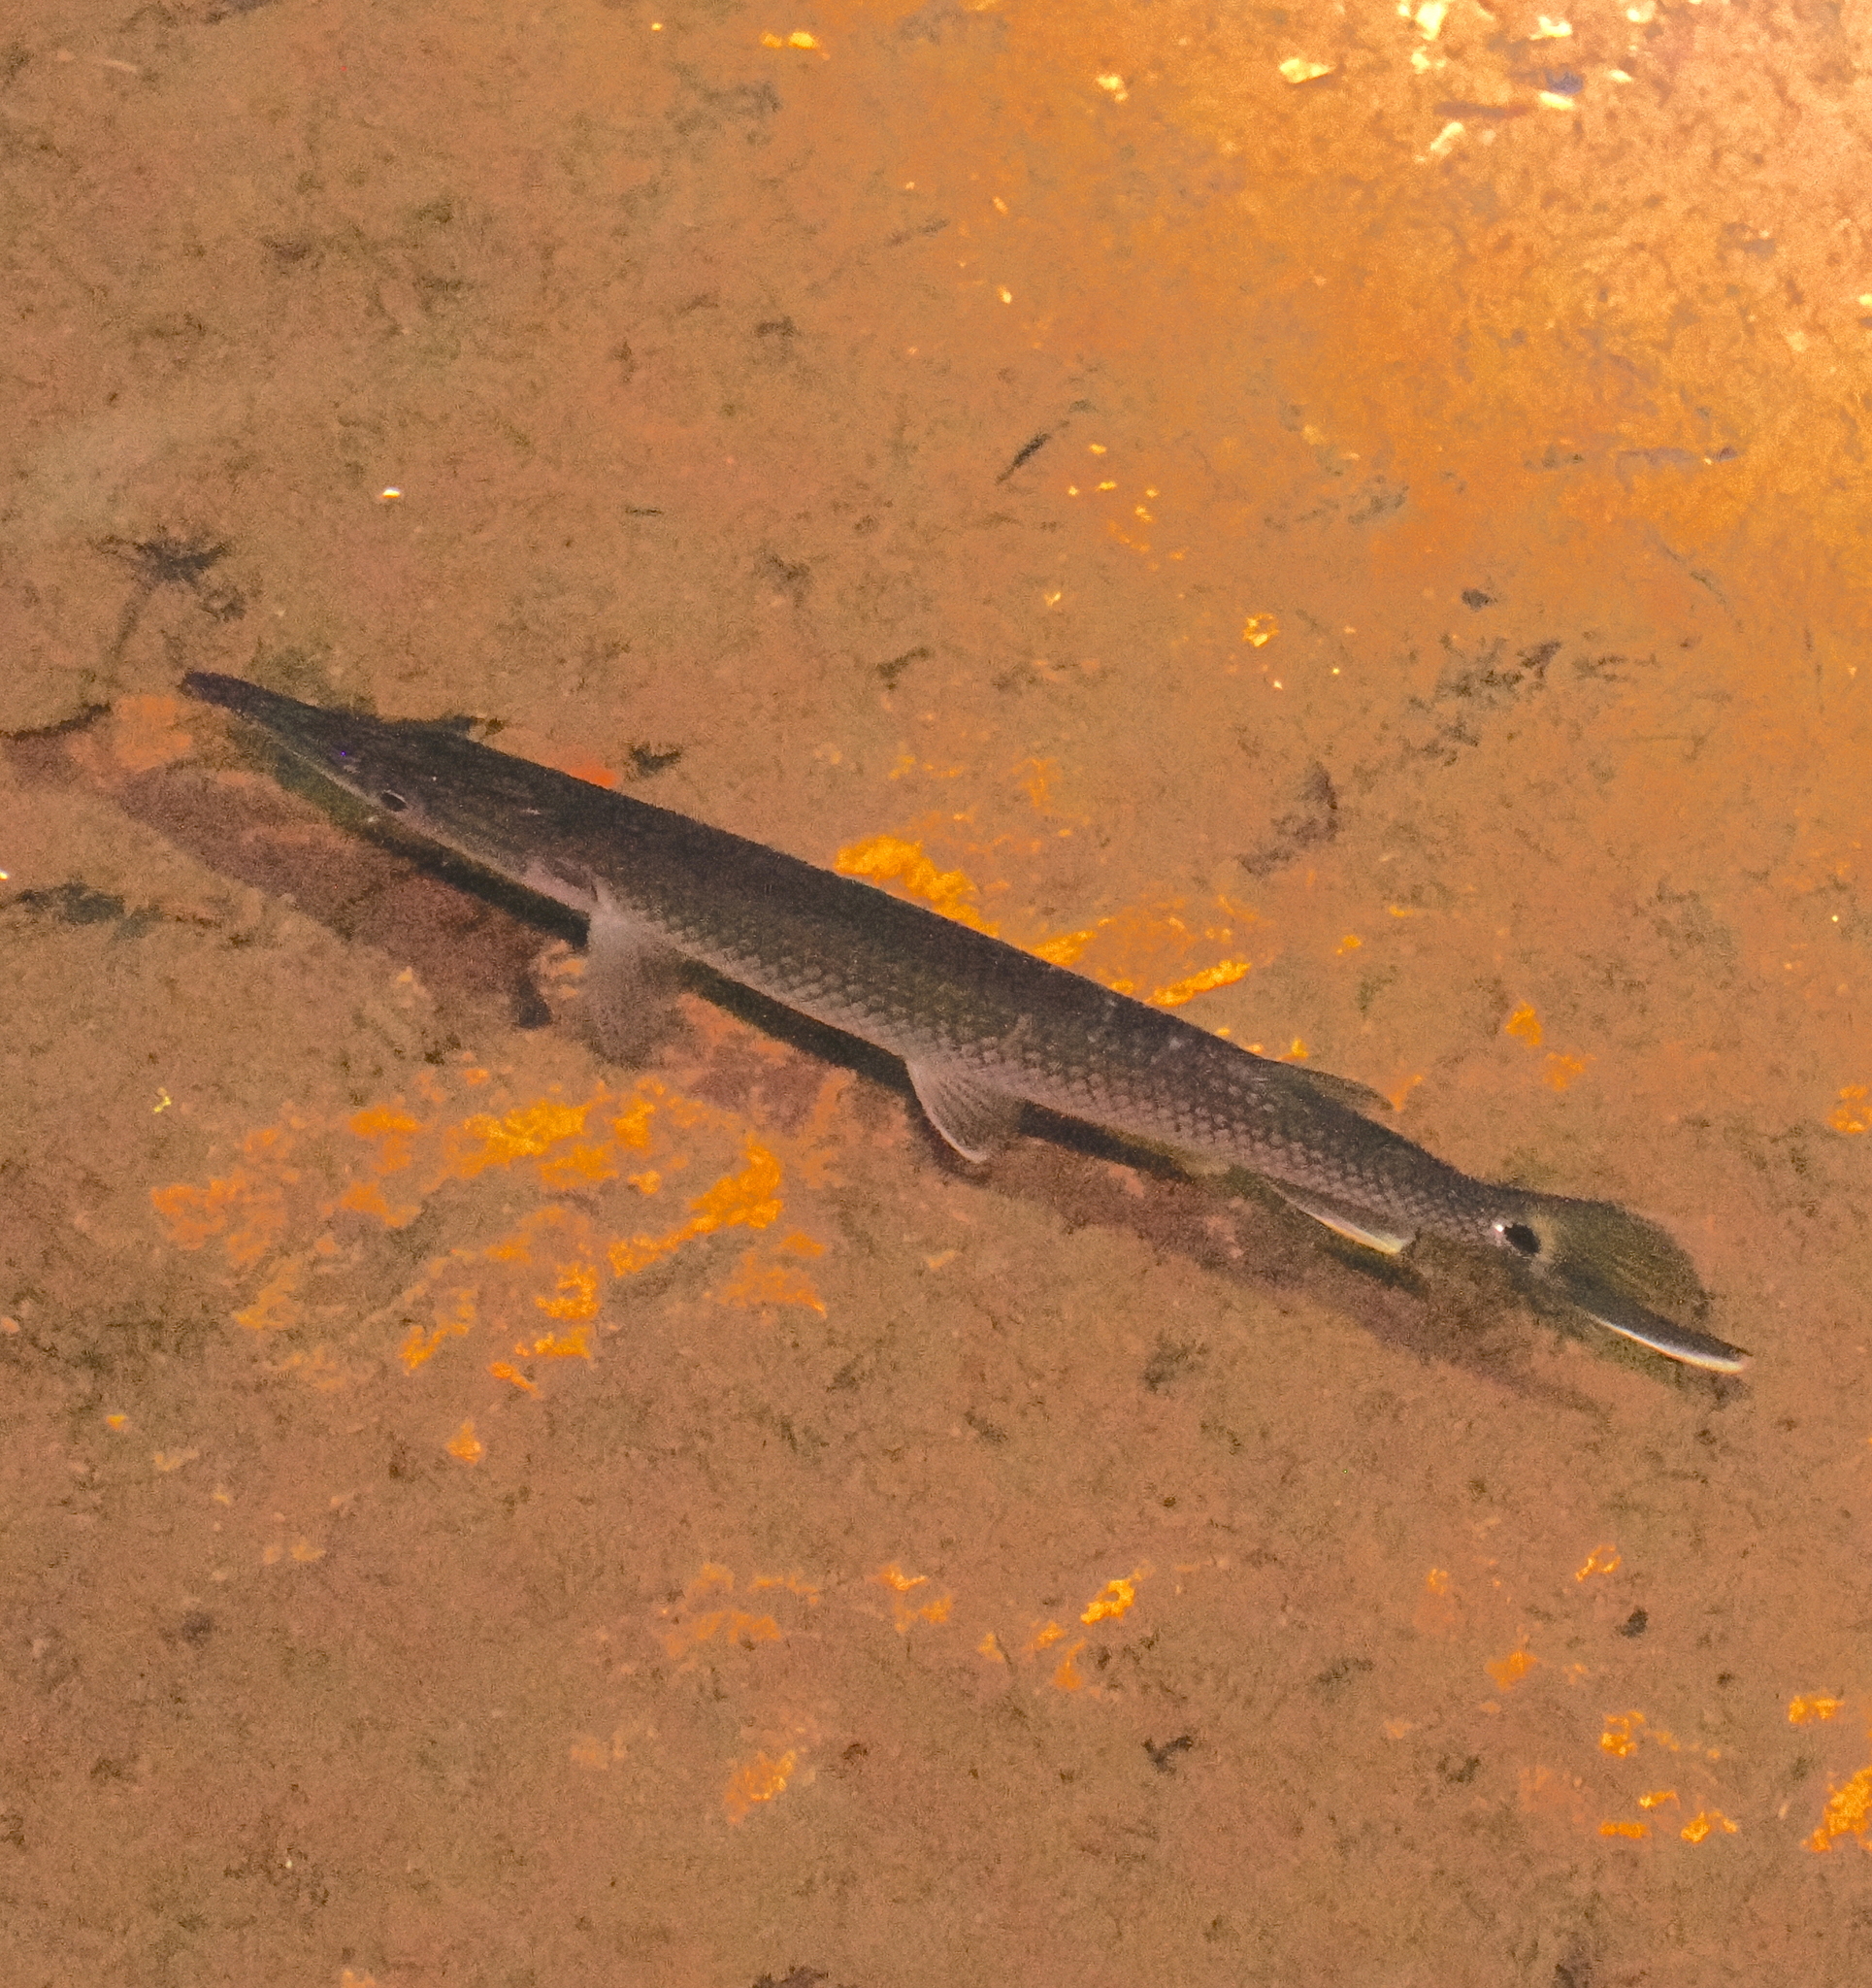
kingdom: Animalia
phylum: Chordata
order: Characiformes
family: Ctenoluciidae
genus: Ctenolucius
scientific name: Ctenolucius hujeta
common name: Gar characin
